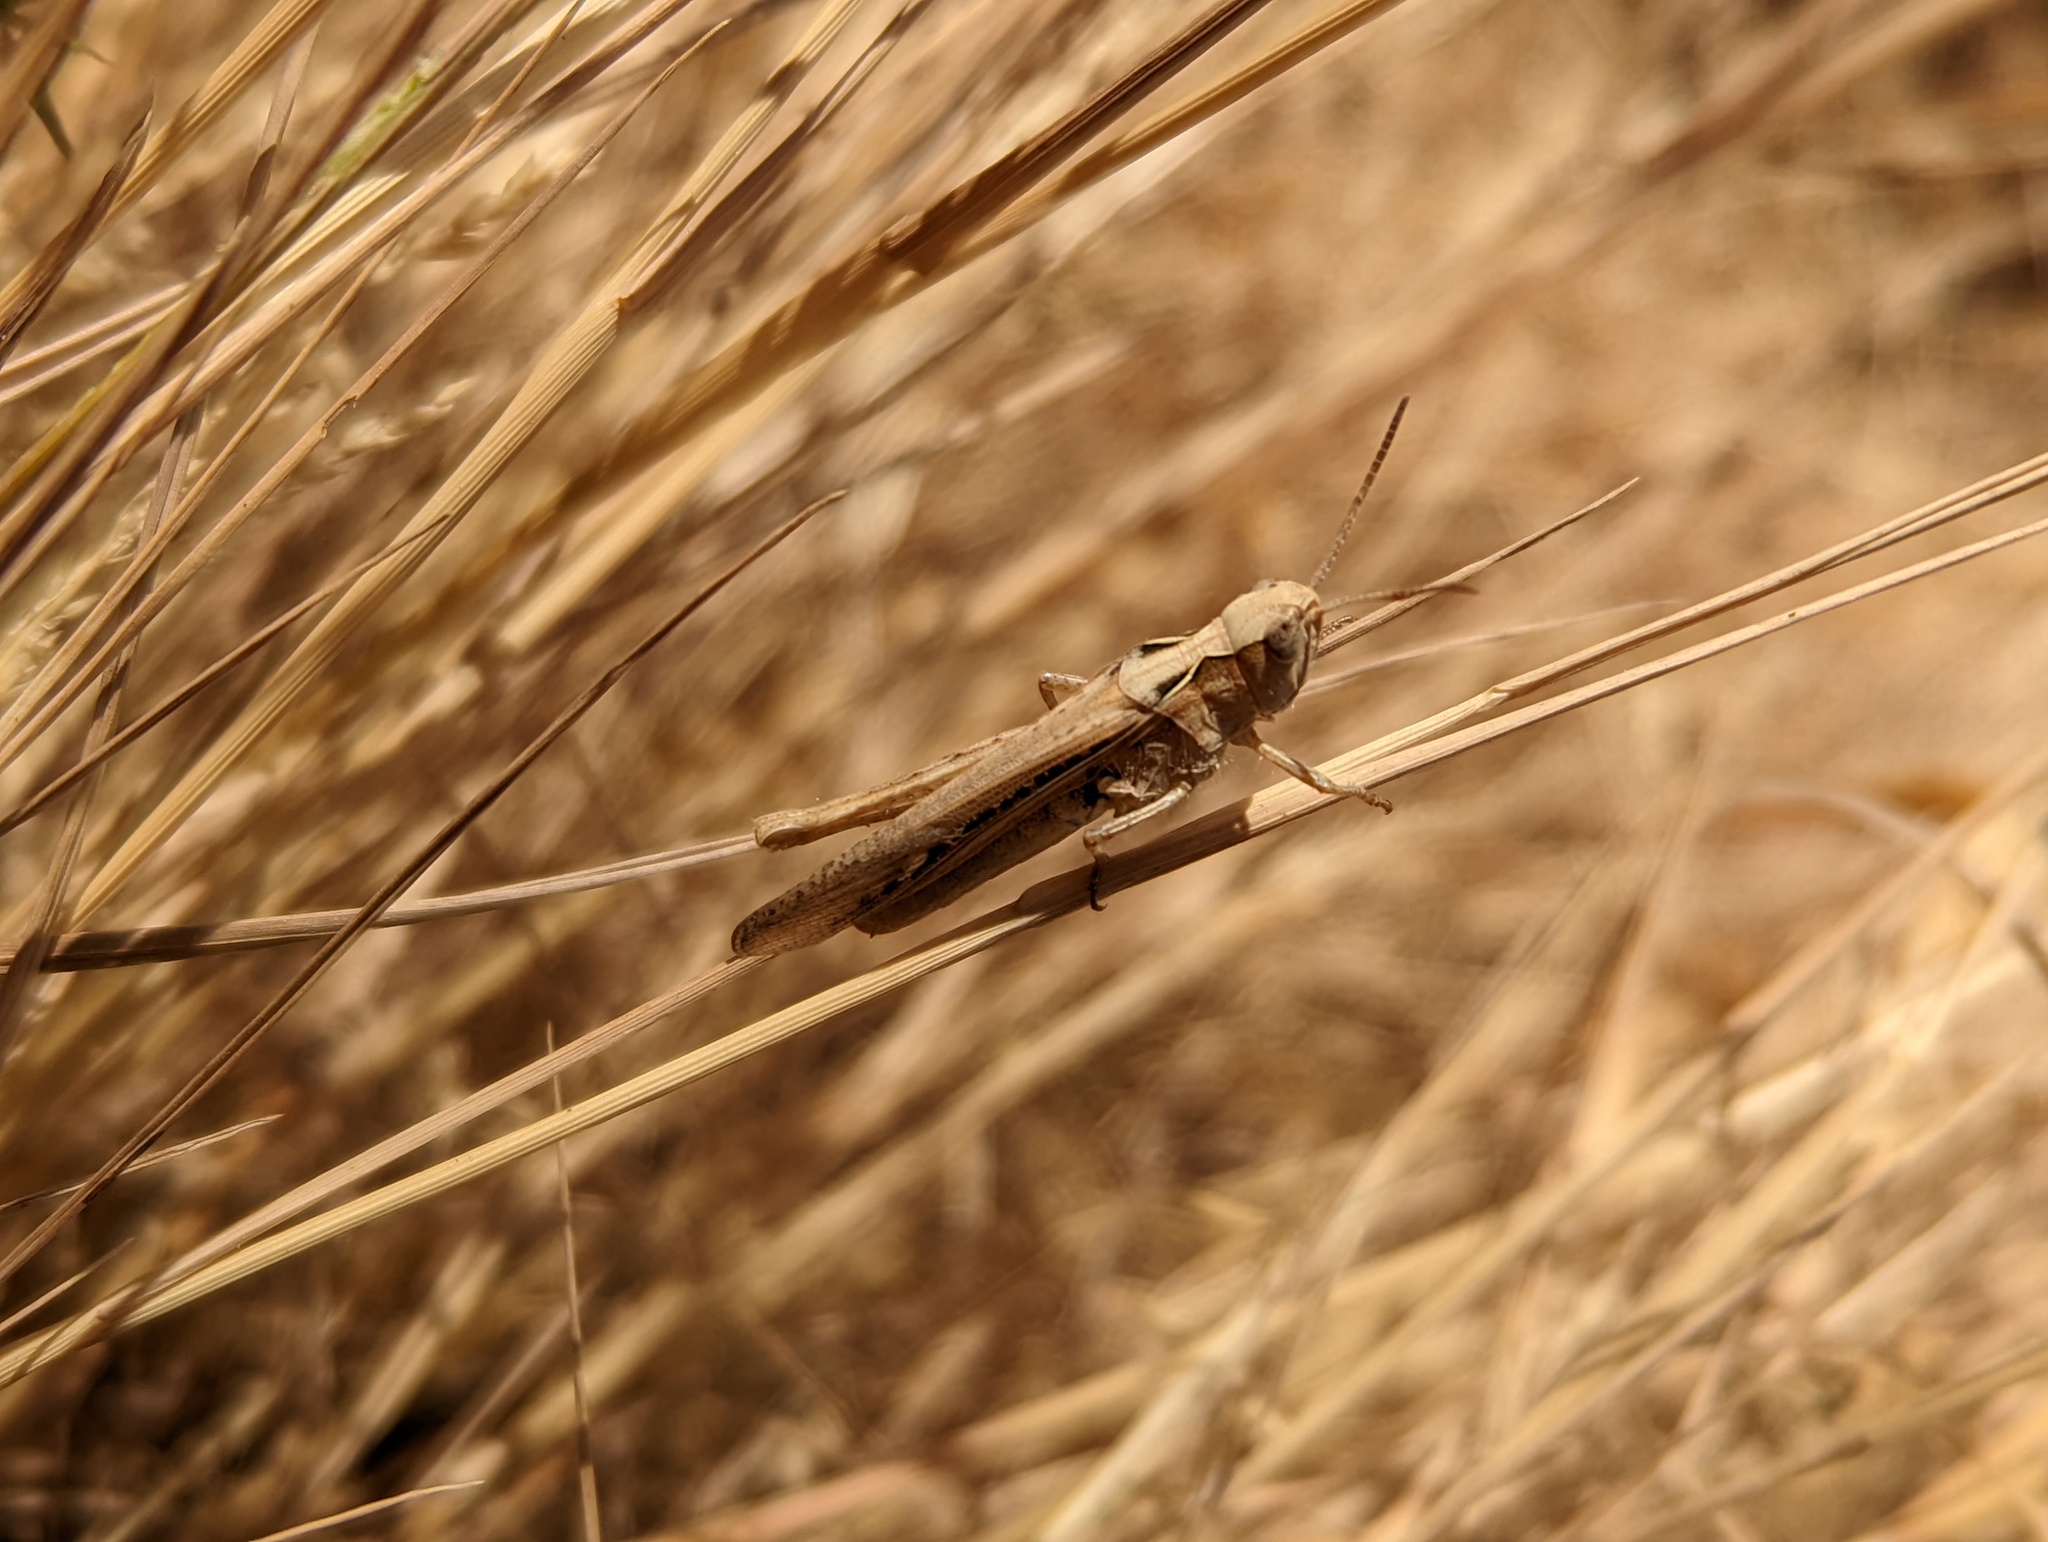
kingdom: Animalia
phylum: Arthropoda
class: Insecta
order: Orthoptera
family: Acrididae
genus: Chorthippus
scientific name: Chorthippus brunneus
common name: Field grasshopper
